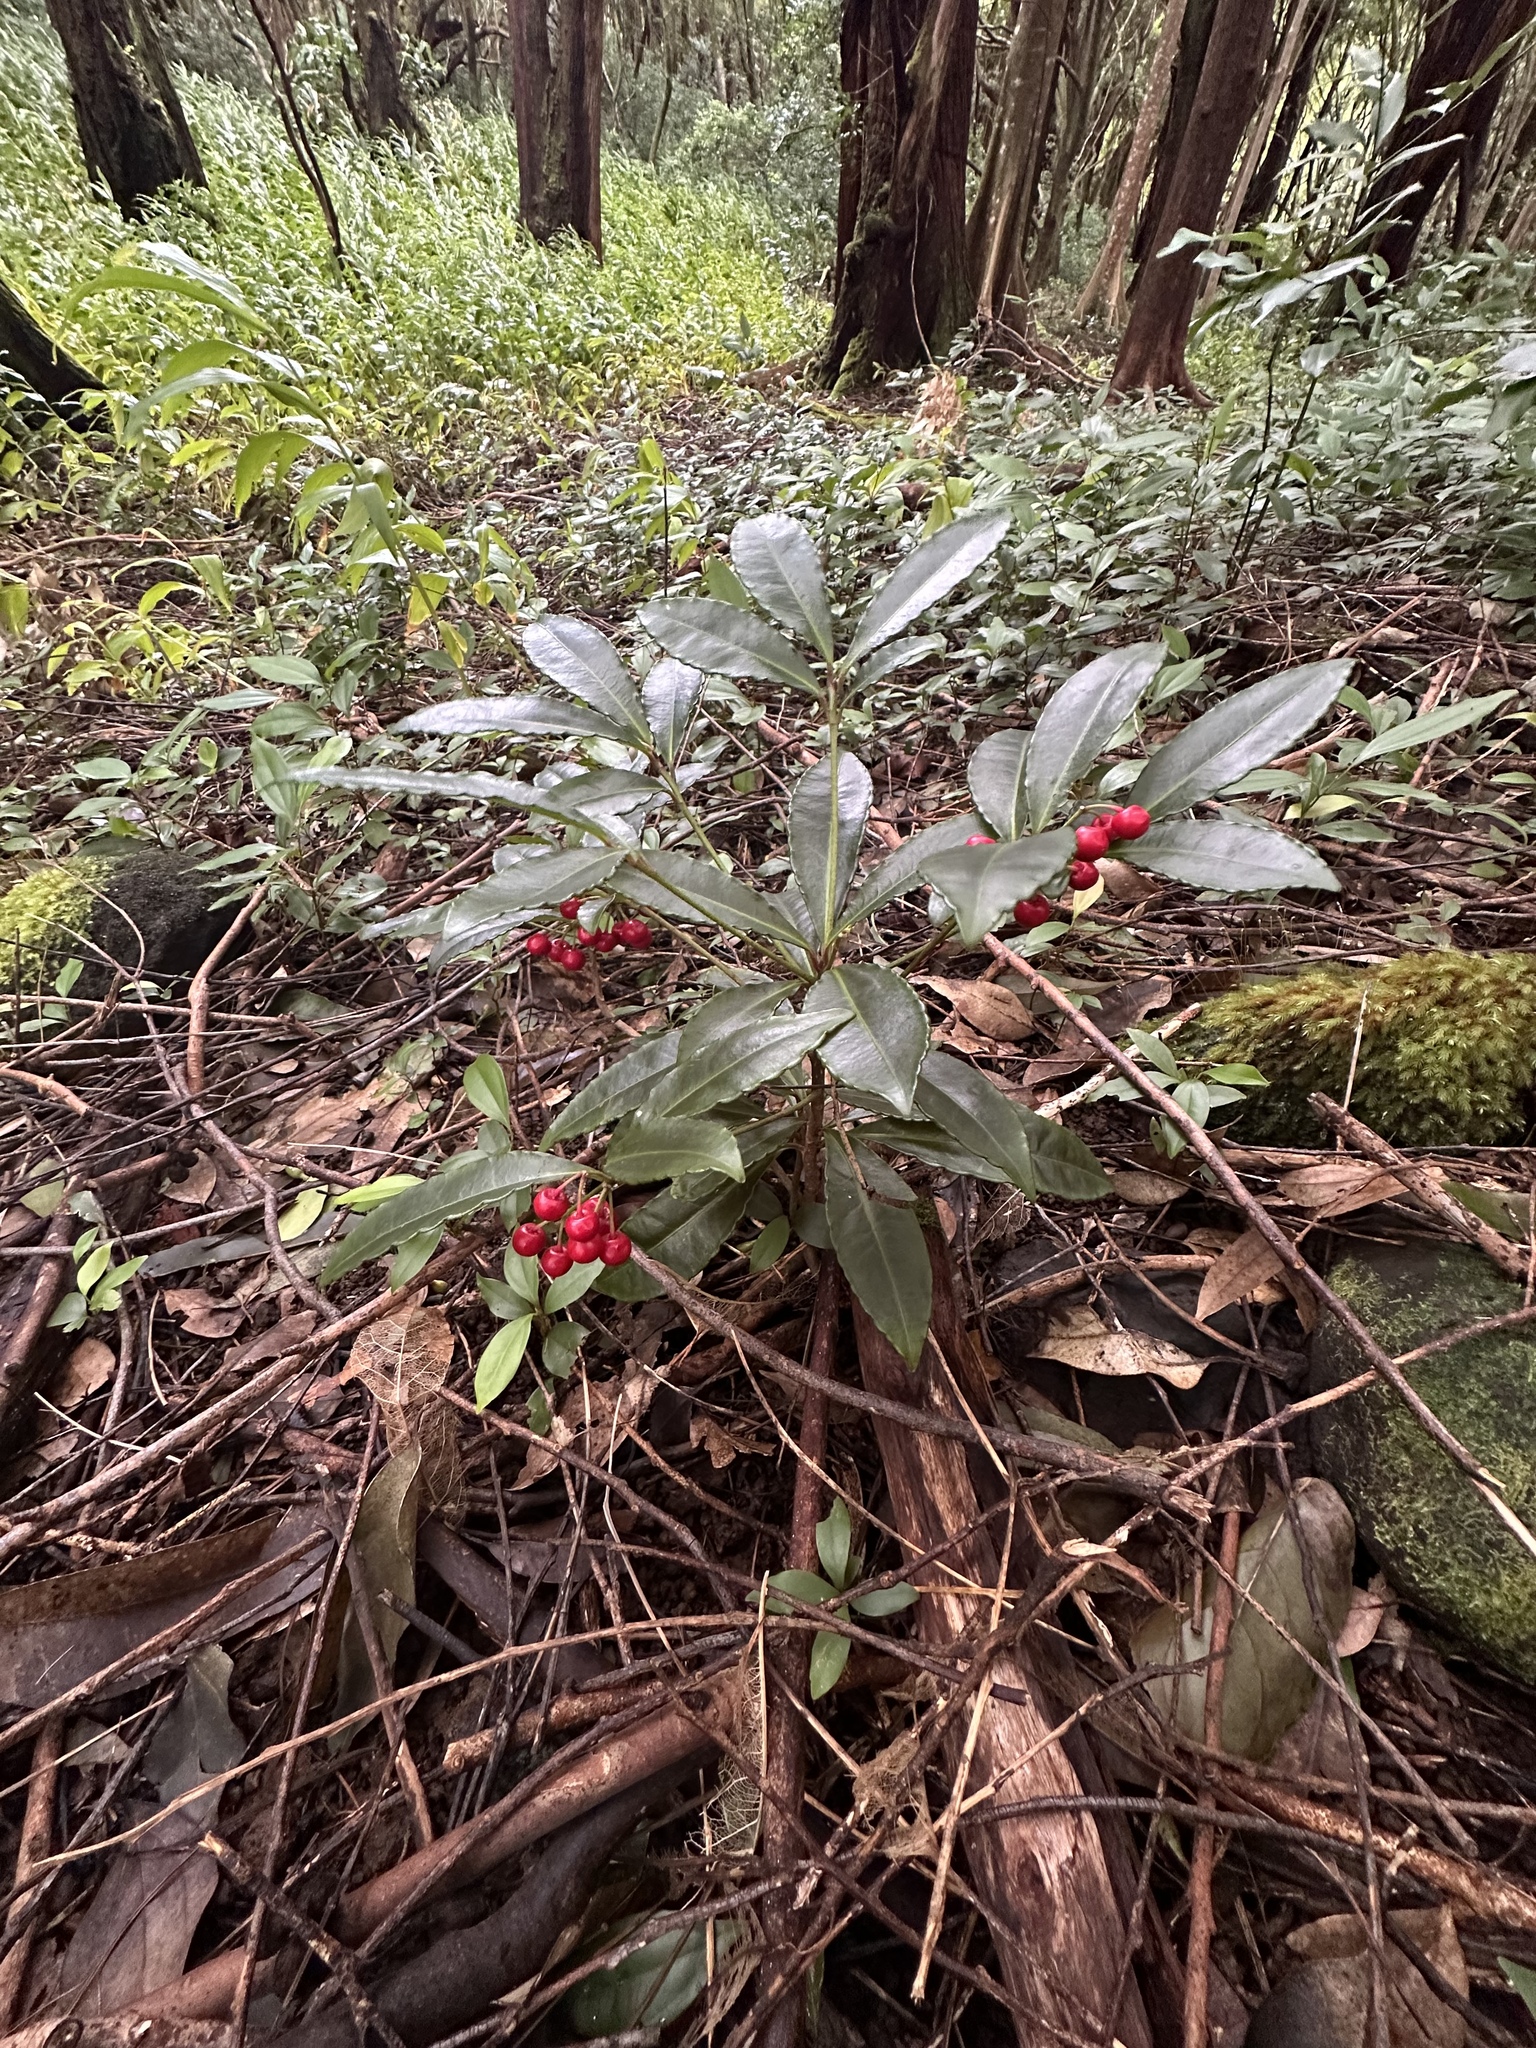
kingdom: Plantae
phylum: Tracheophyta
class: Magnoliopsida
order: Ericales
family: Primulaceae
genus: Ardisia
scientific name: Ardisia crenata
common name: Hen's eyes
